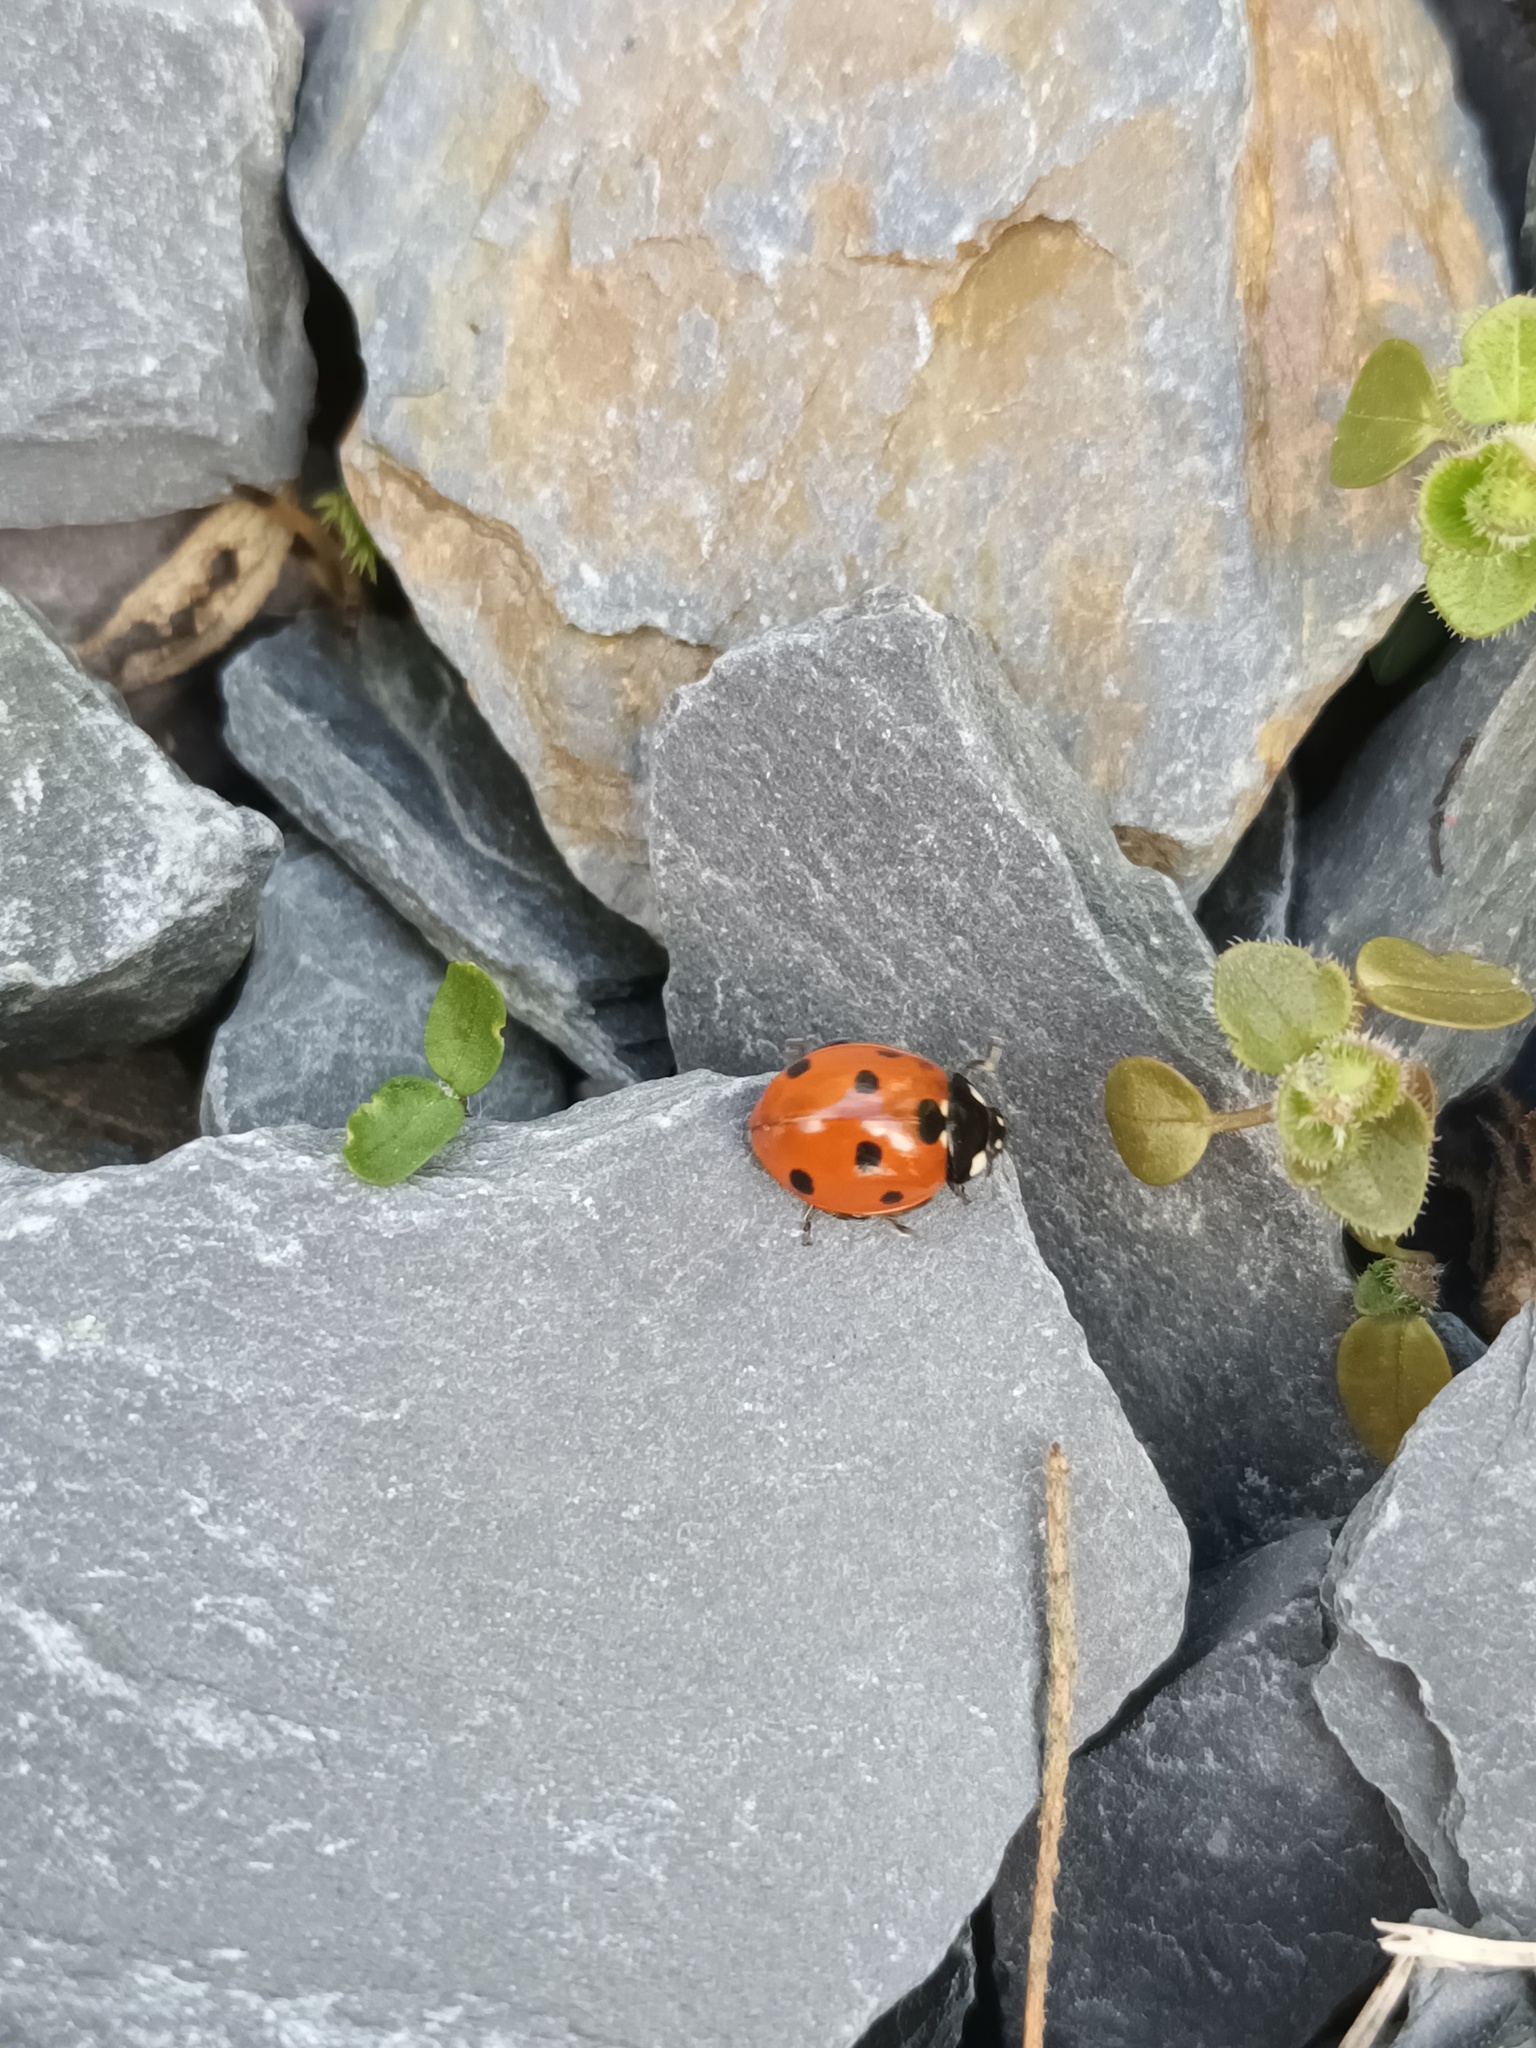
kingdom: Animalia
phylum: Arthropoda
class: Insecta
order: Coleoptera
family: Coccinellidae
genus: Coccinella
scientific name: Coccinella septempunctata
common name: Sevenspotted lady beetle
